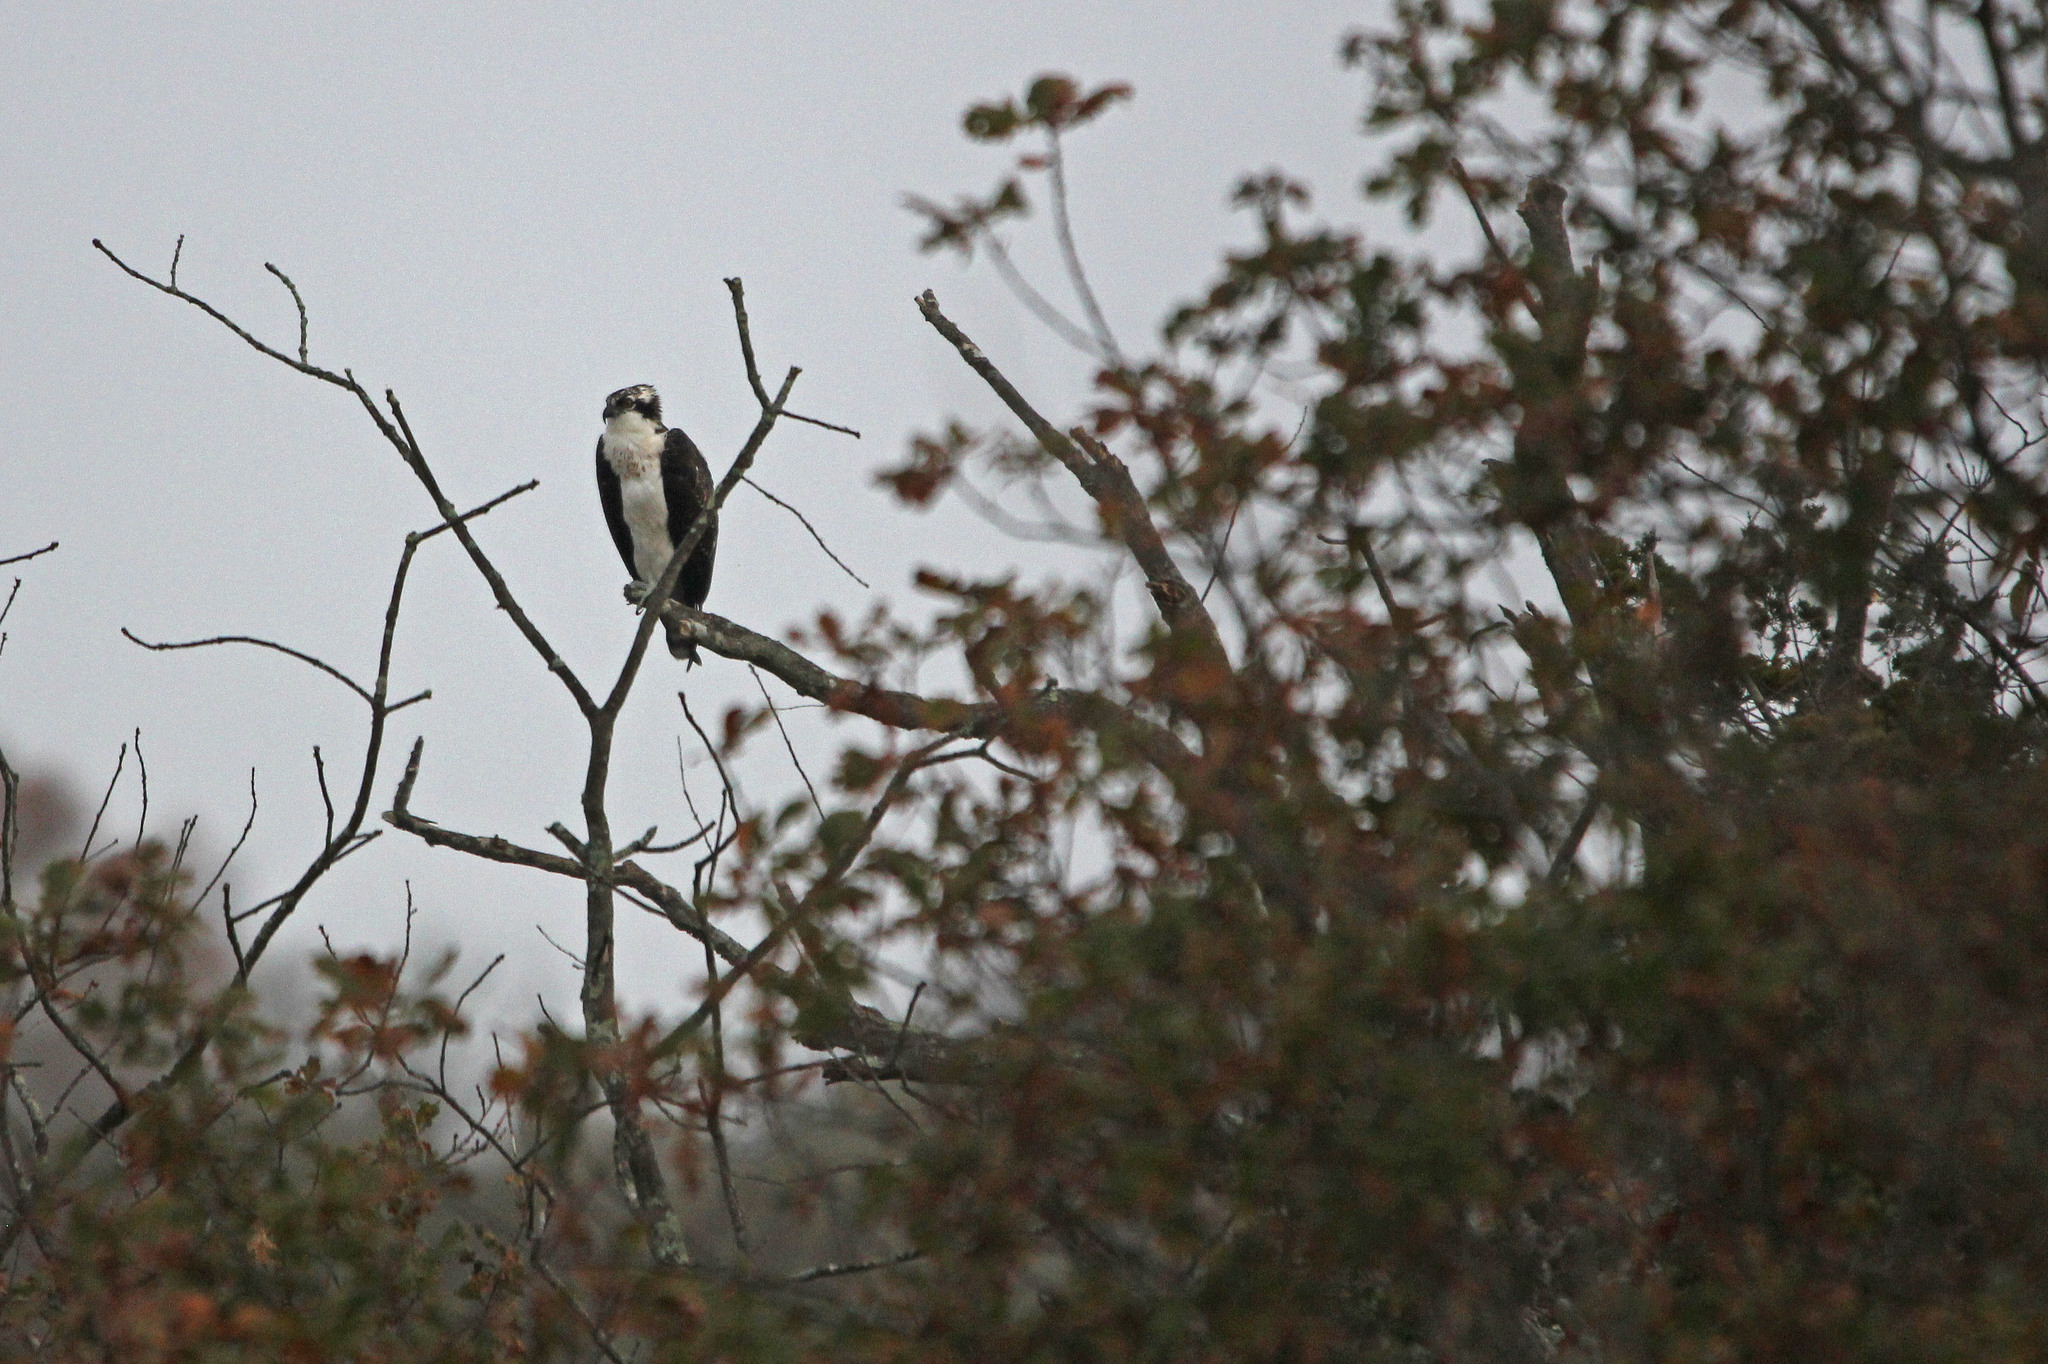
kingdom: Animalia
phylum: Chordata
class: Aves
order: Accipitriformes
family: Pandionidae
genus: Pandion
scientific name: Pandion haliaetus
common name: Osprey
